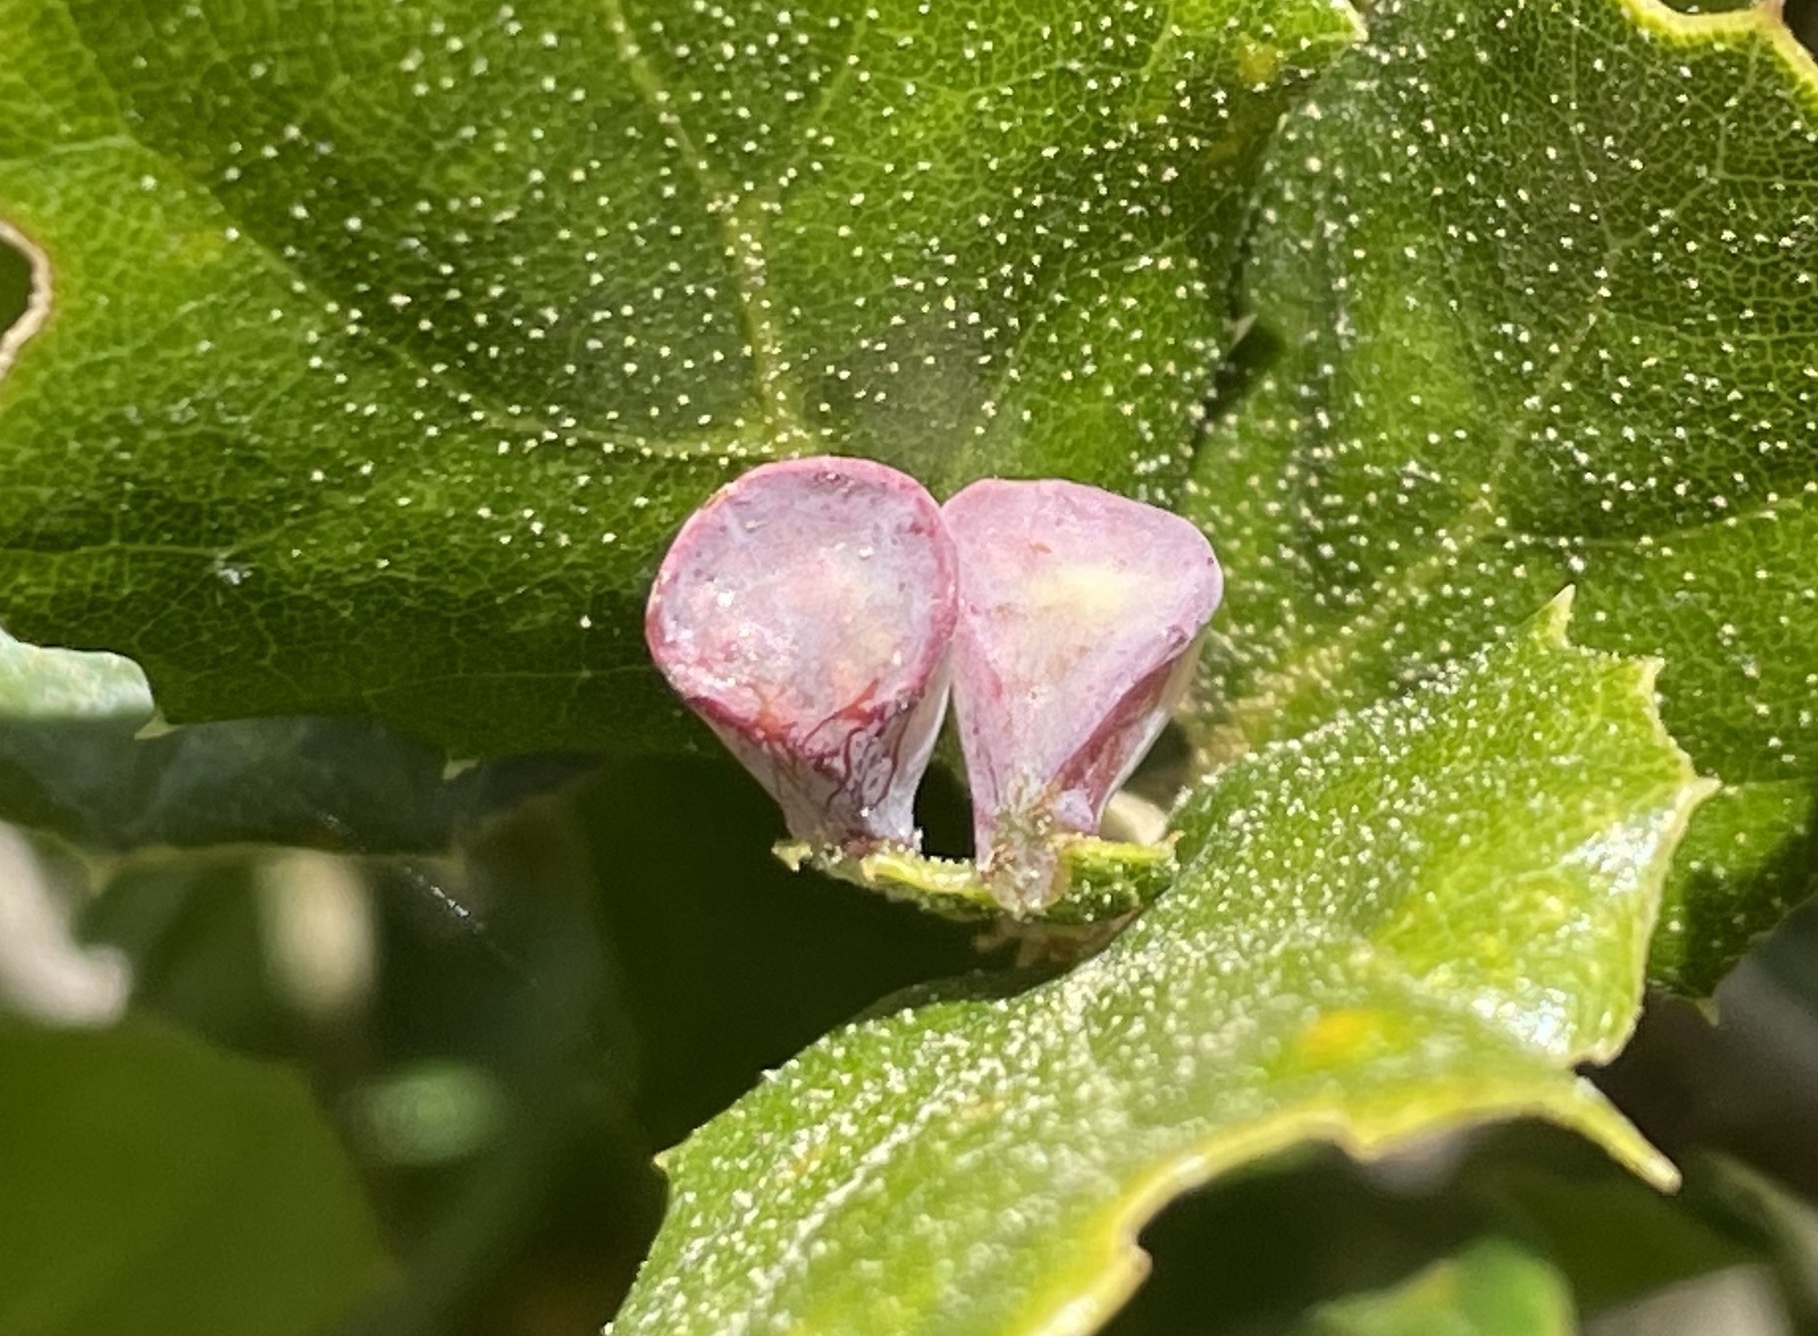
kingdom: Animalia
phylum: Arthropoda
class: Insecta
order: Hymenoptera
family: Cynipidae
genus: Amphibolips
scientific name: Amphibolips quercuspomiformis
